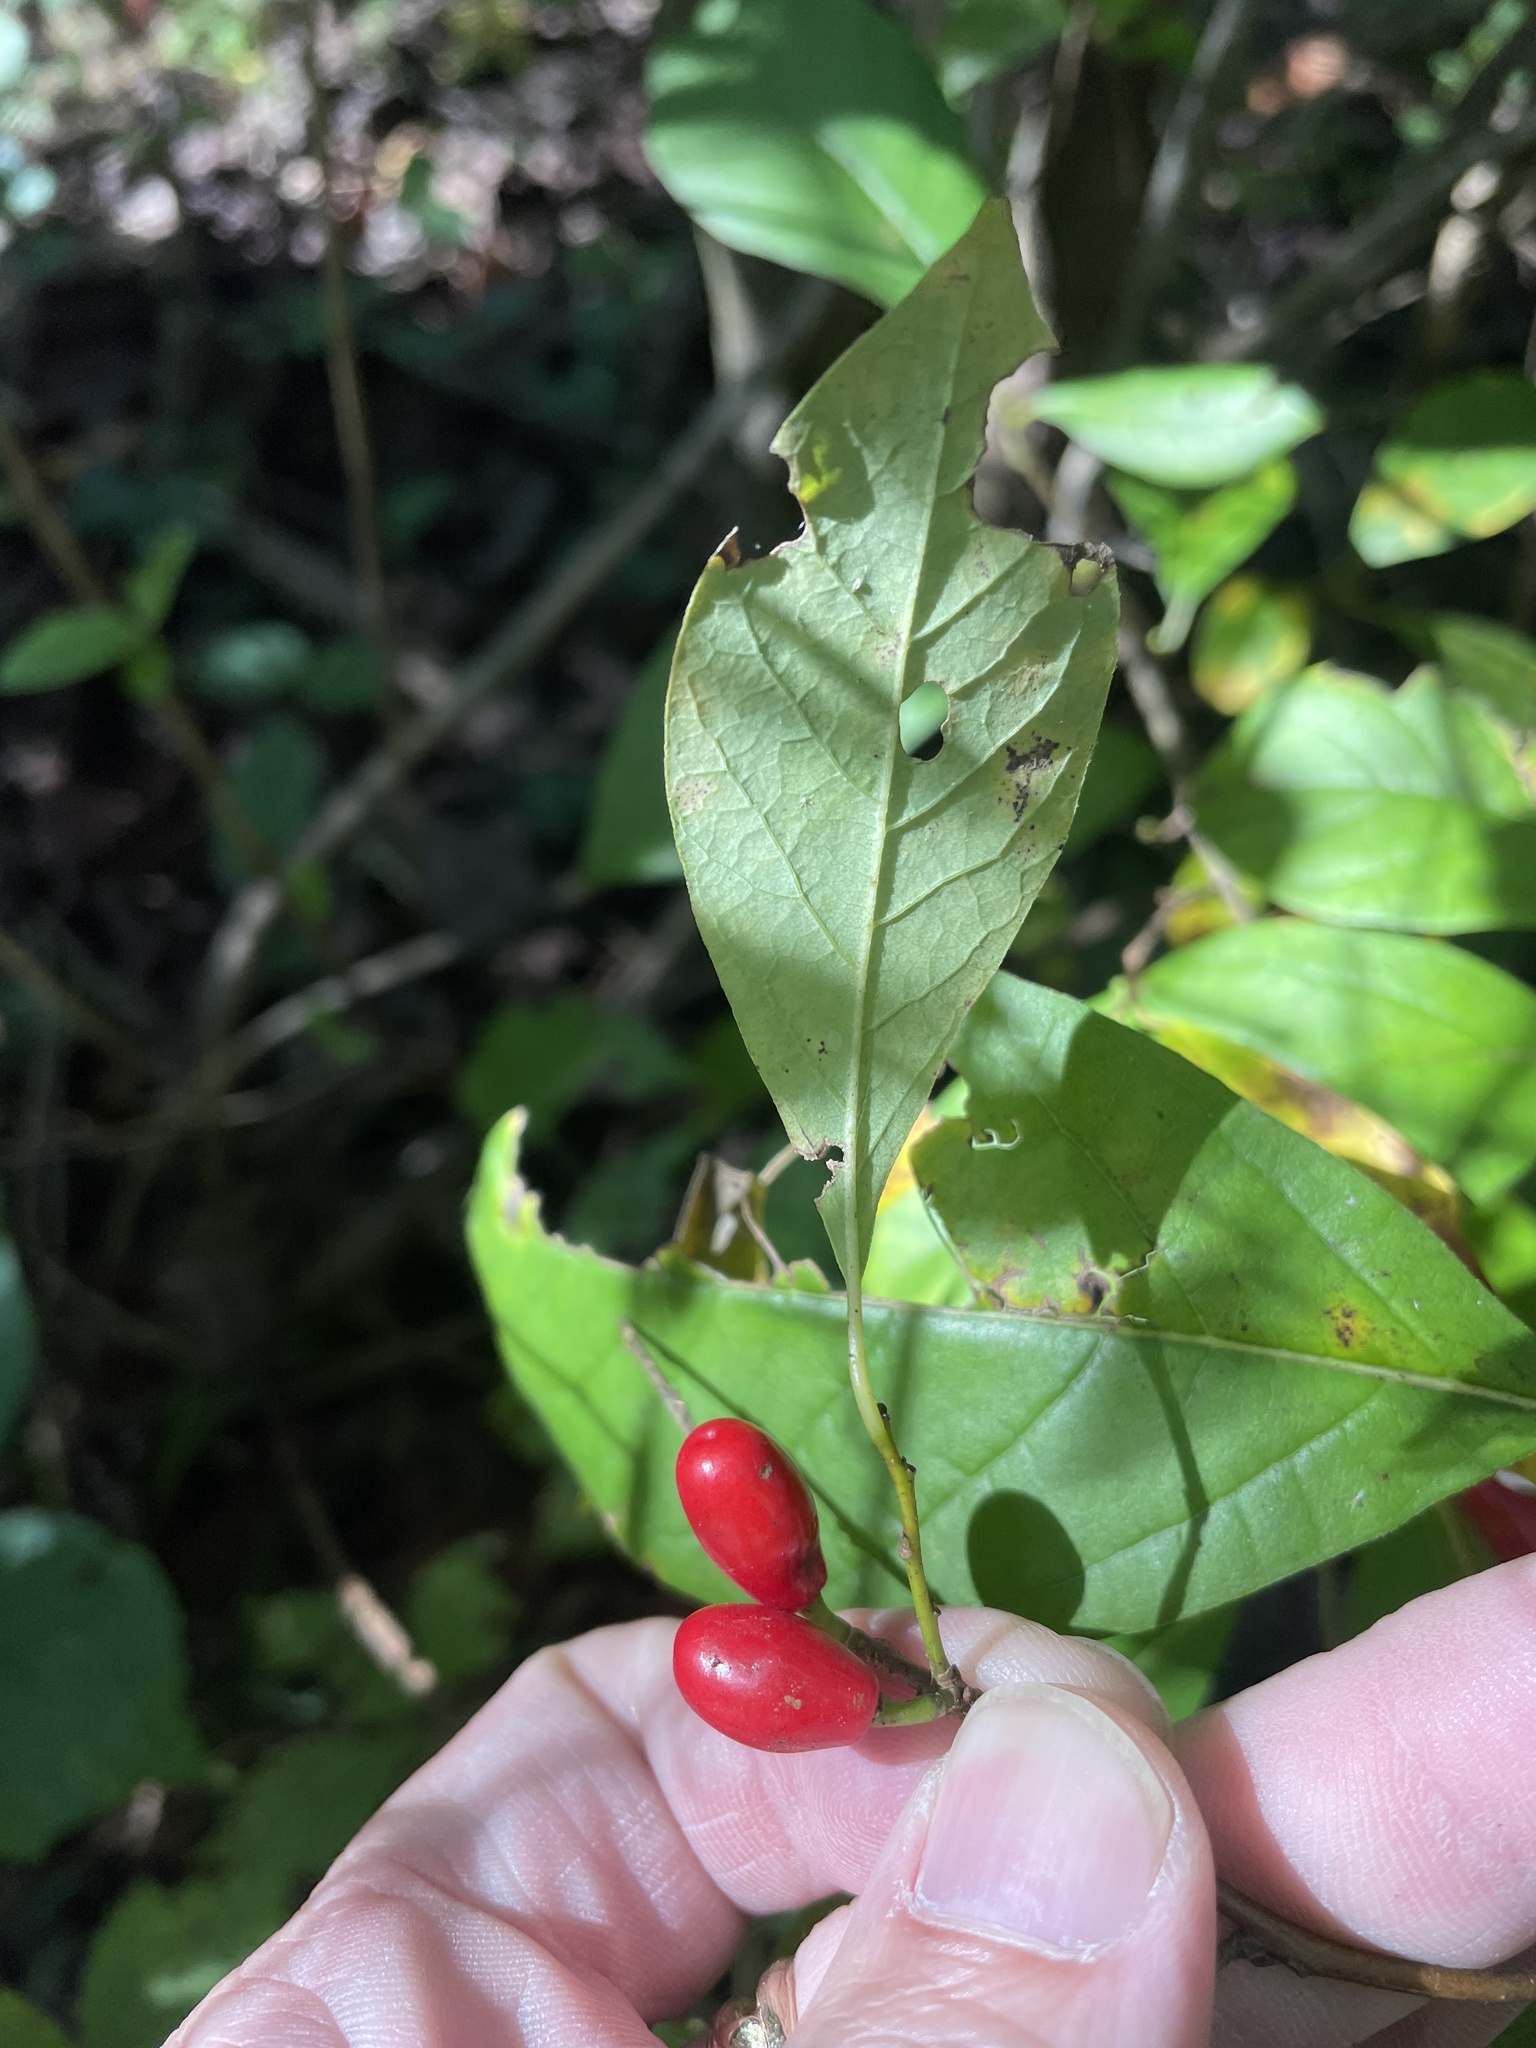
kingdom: Plantae
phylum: Tracheophyta
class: Magnoliopsida
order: Laurales
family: Lauraceae
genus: Lindera
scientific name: Lindera benzoin
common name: Spicebush
